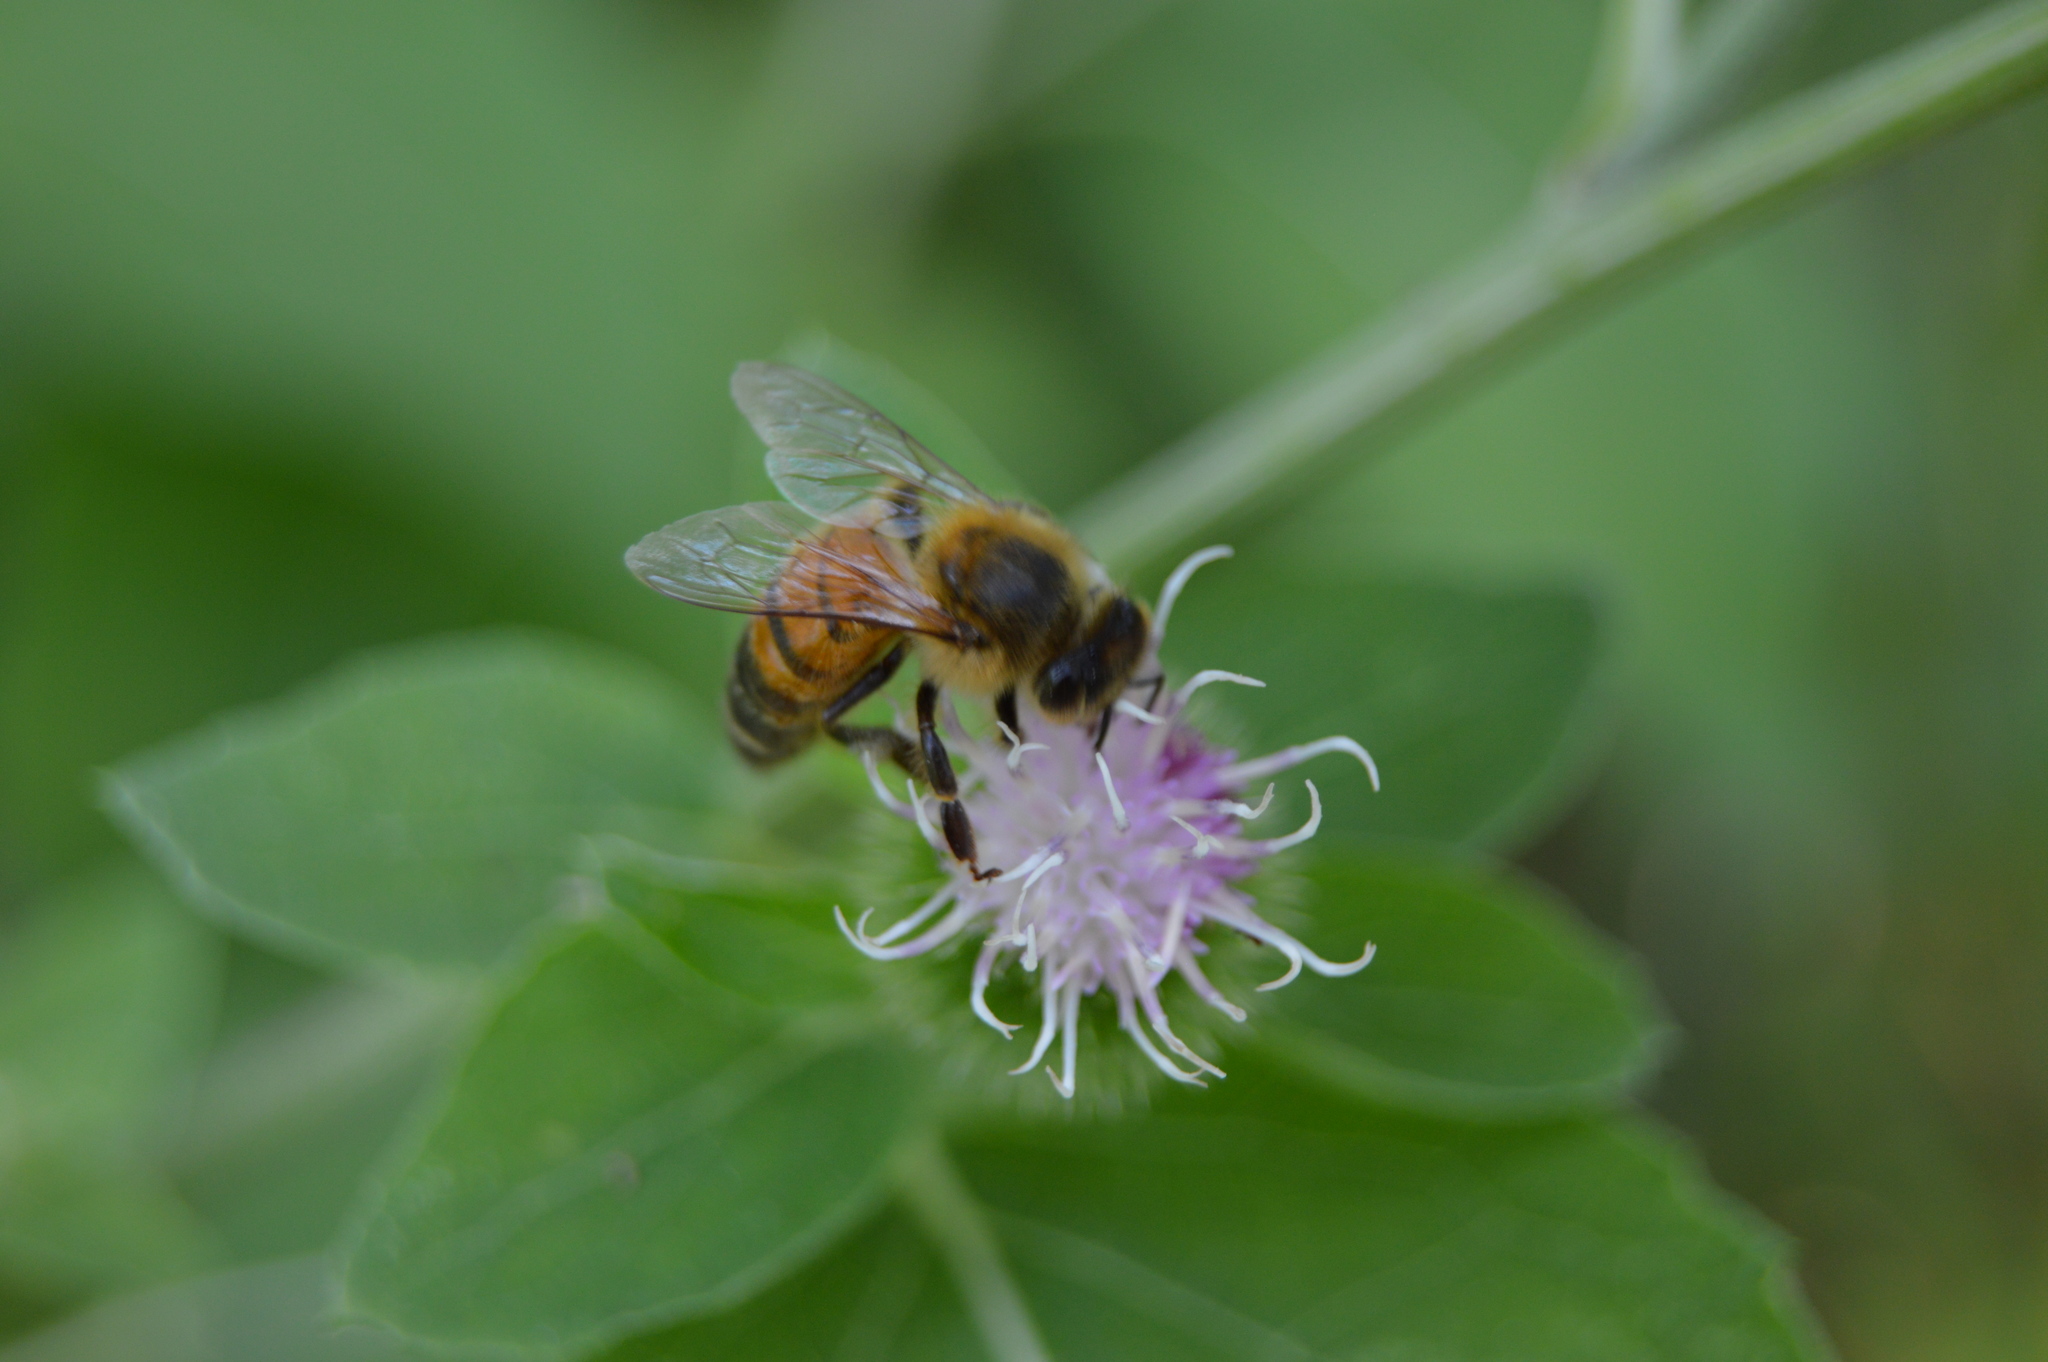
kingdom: Animalia
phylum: Arthropoda
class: Insecta
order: Hymenoptera
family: Apidae
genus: Apis
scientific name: Apis mellifera
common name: Honey bee
